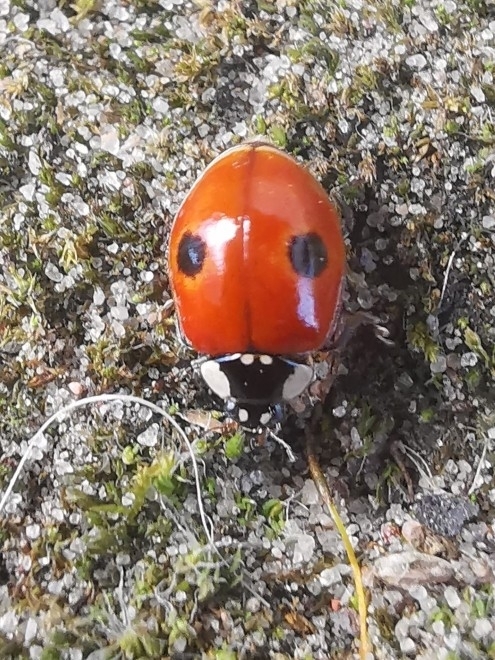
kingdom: Animalia
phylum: Arthropoda
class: Insecta
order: Coleoptera
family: Coccinellidae
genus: Adalia
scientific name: Adalia bipunctata
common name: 2-spot ladybird
